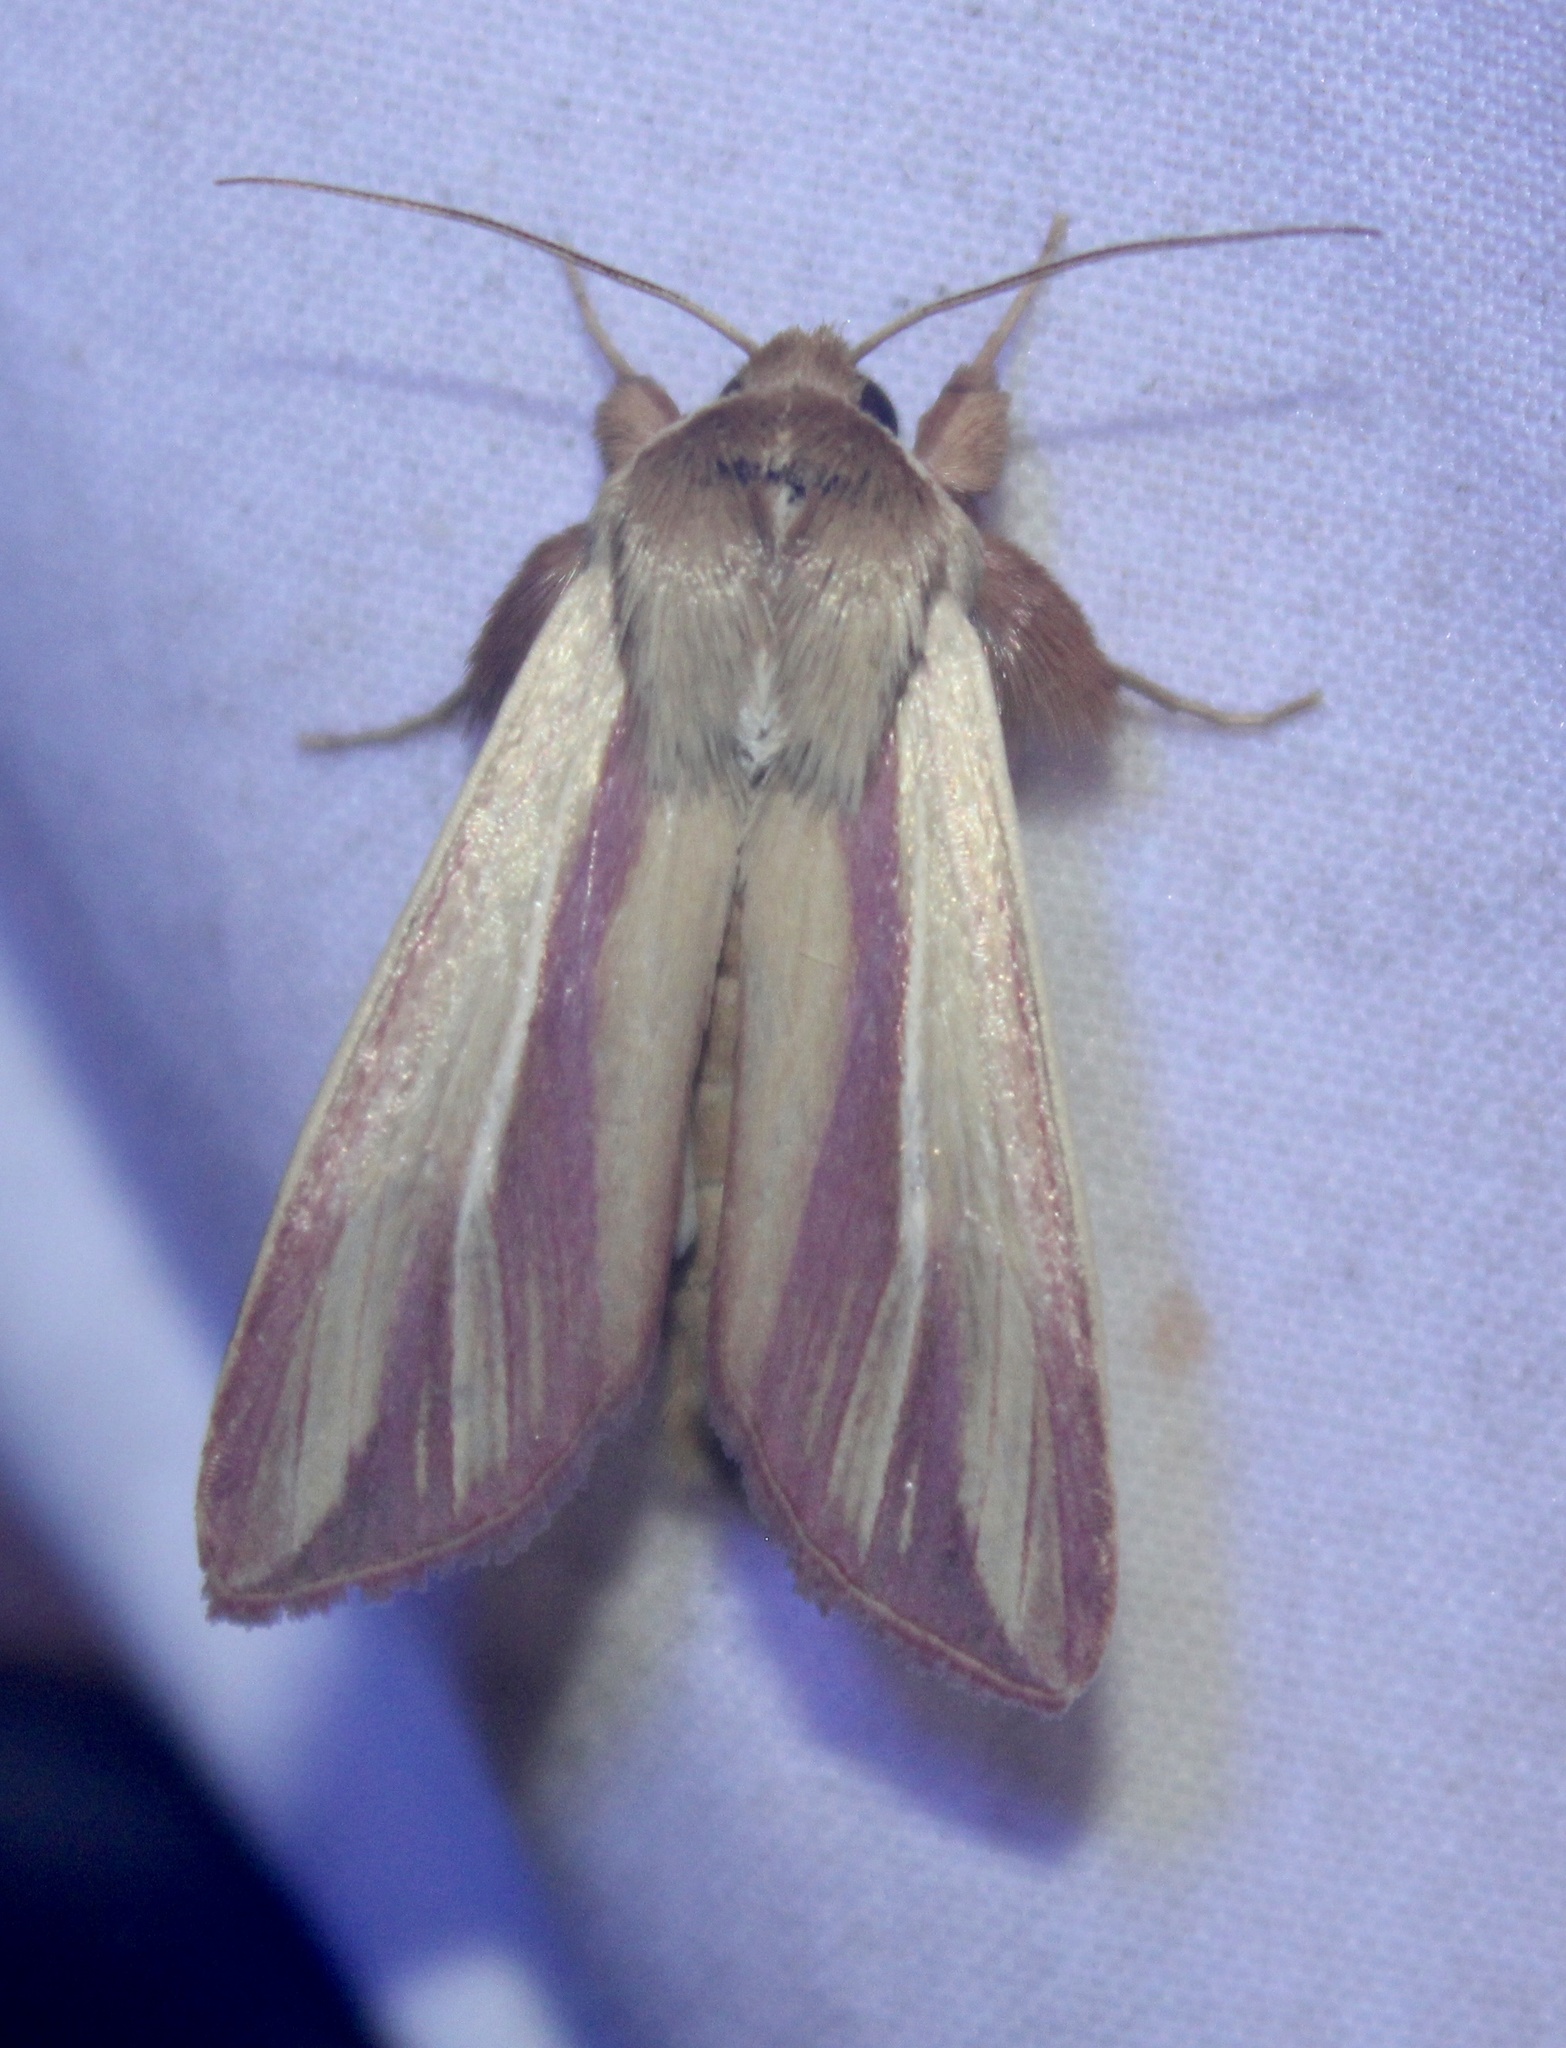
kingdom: Animalia
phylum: Arthropoda
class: Insecta
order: Lepidoptera
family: Noctuidae
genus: Dargida
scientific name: Dargida rubripennis
